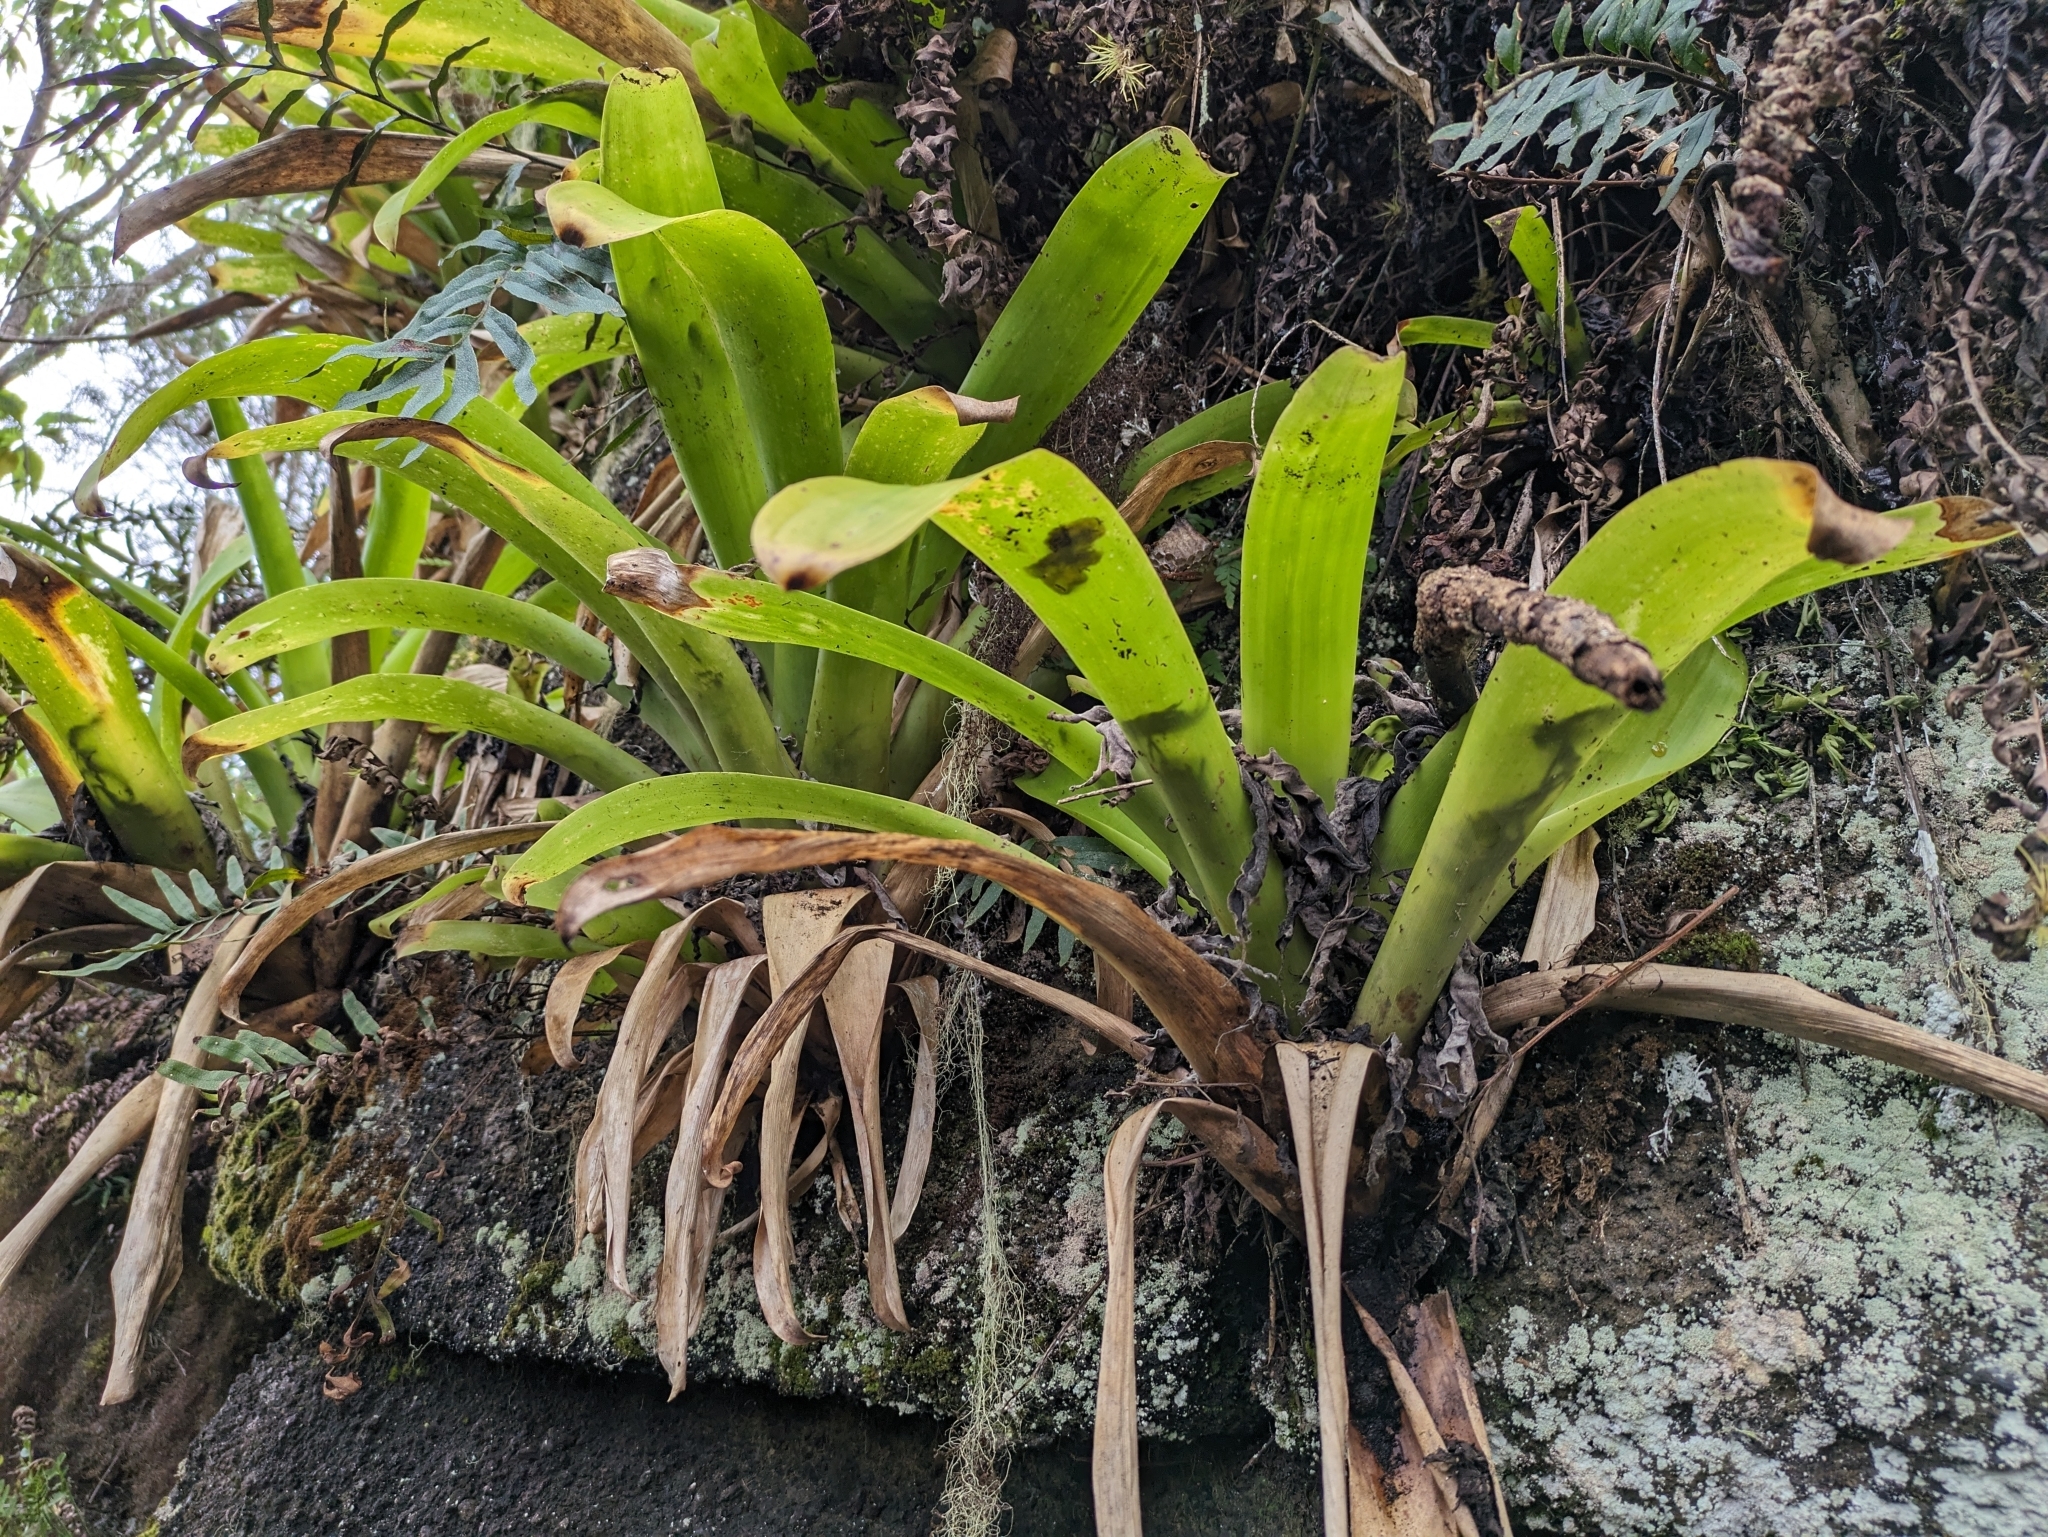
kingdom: Plantae
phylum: Tracheophyta
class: Liliopsida
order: Poales
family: Bromeliaceae
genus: Racinaea
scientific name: Racinaea insularis
